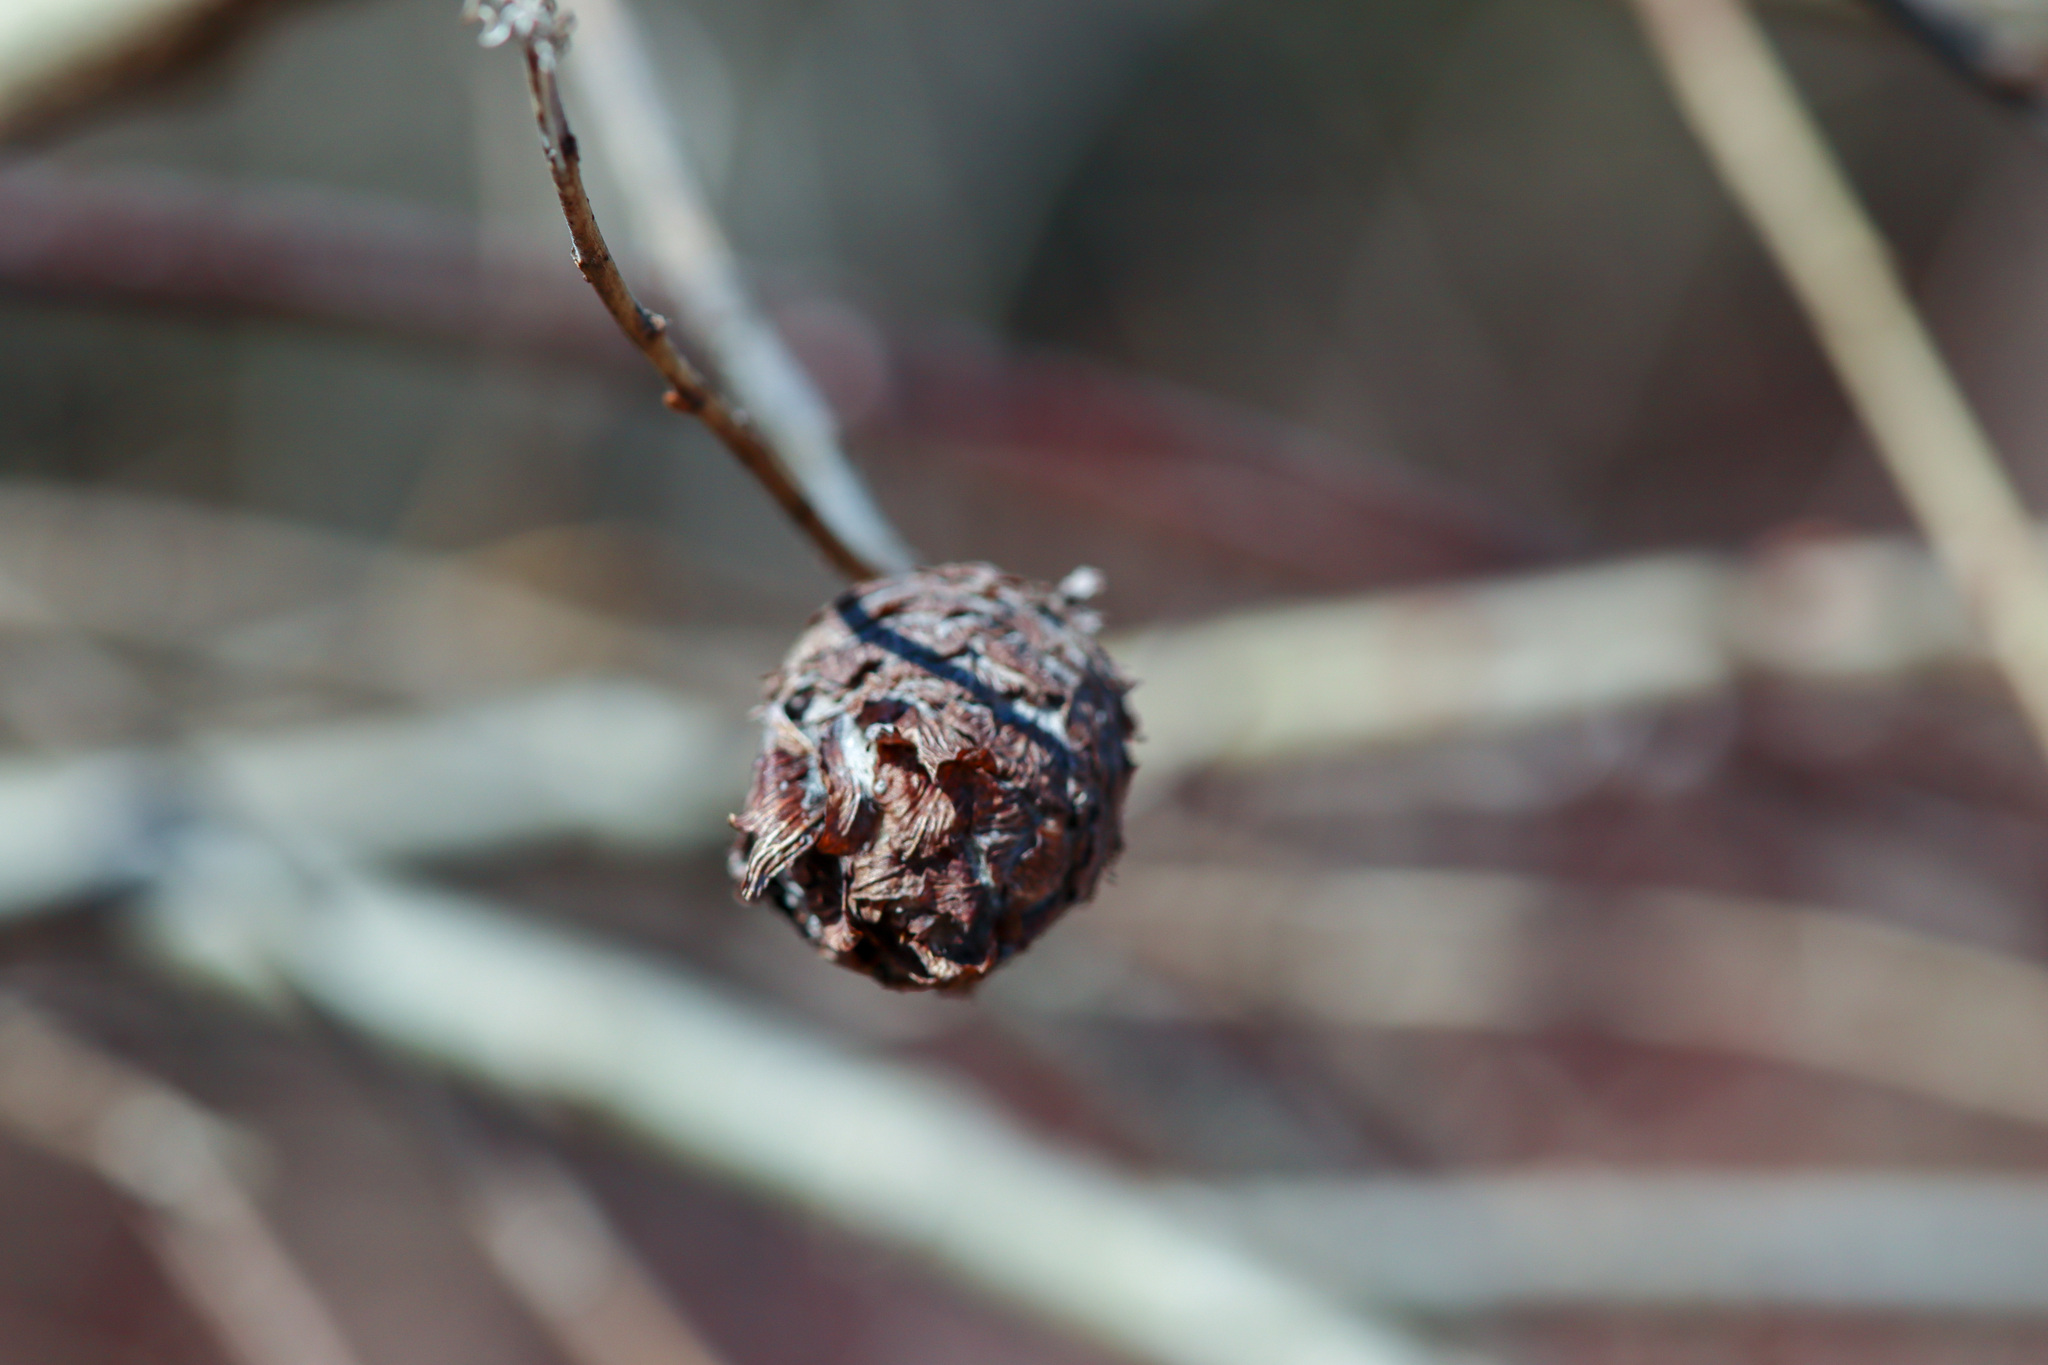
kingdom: Animalia
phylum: Arthropoda
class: Insecta
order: Diptera
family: Cecidomyiidae
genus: Rabdophaga
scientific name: Rabdophaga strobiloides
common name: Willow pinecone gall midge
